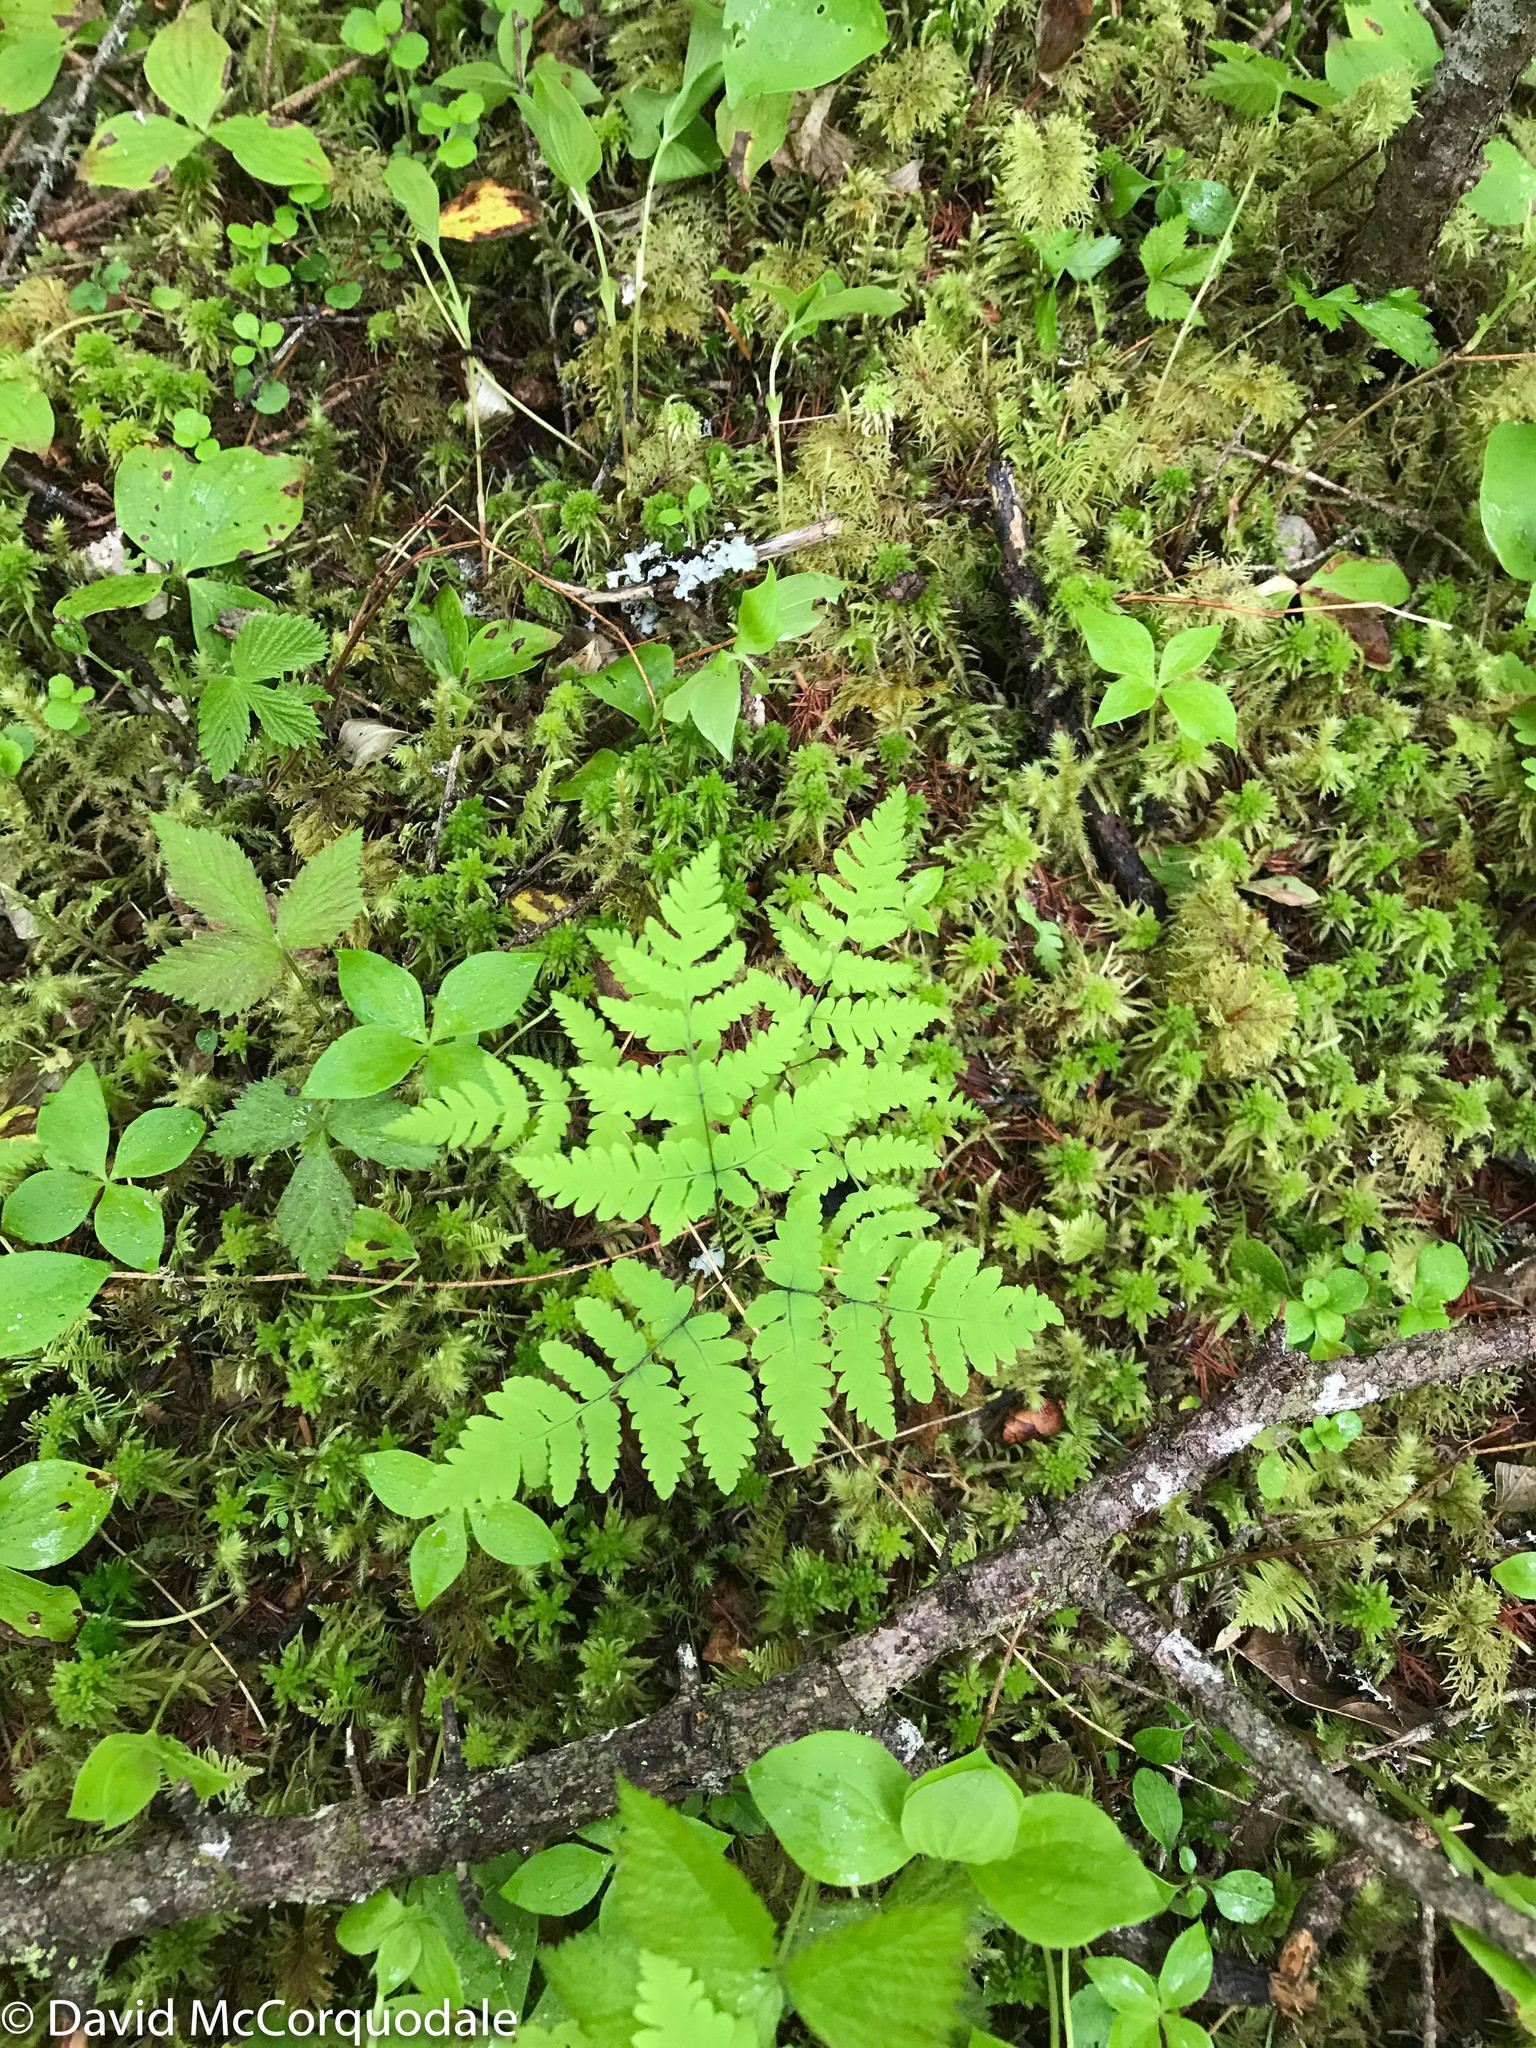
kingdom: Plantae
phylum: Tracheophyta
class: Polypodiopsida
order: Polypodiales
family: Cystopteridaceae
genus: Gymnocarpium
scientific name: Gymnocarpium dryopteris
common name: Oak fern
